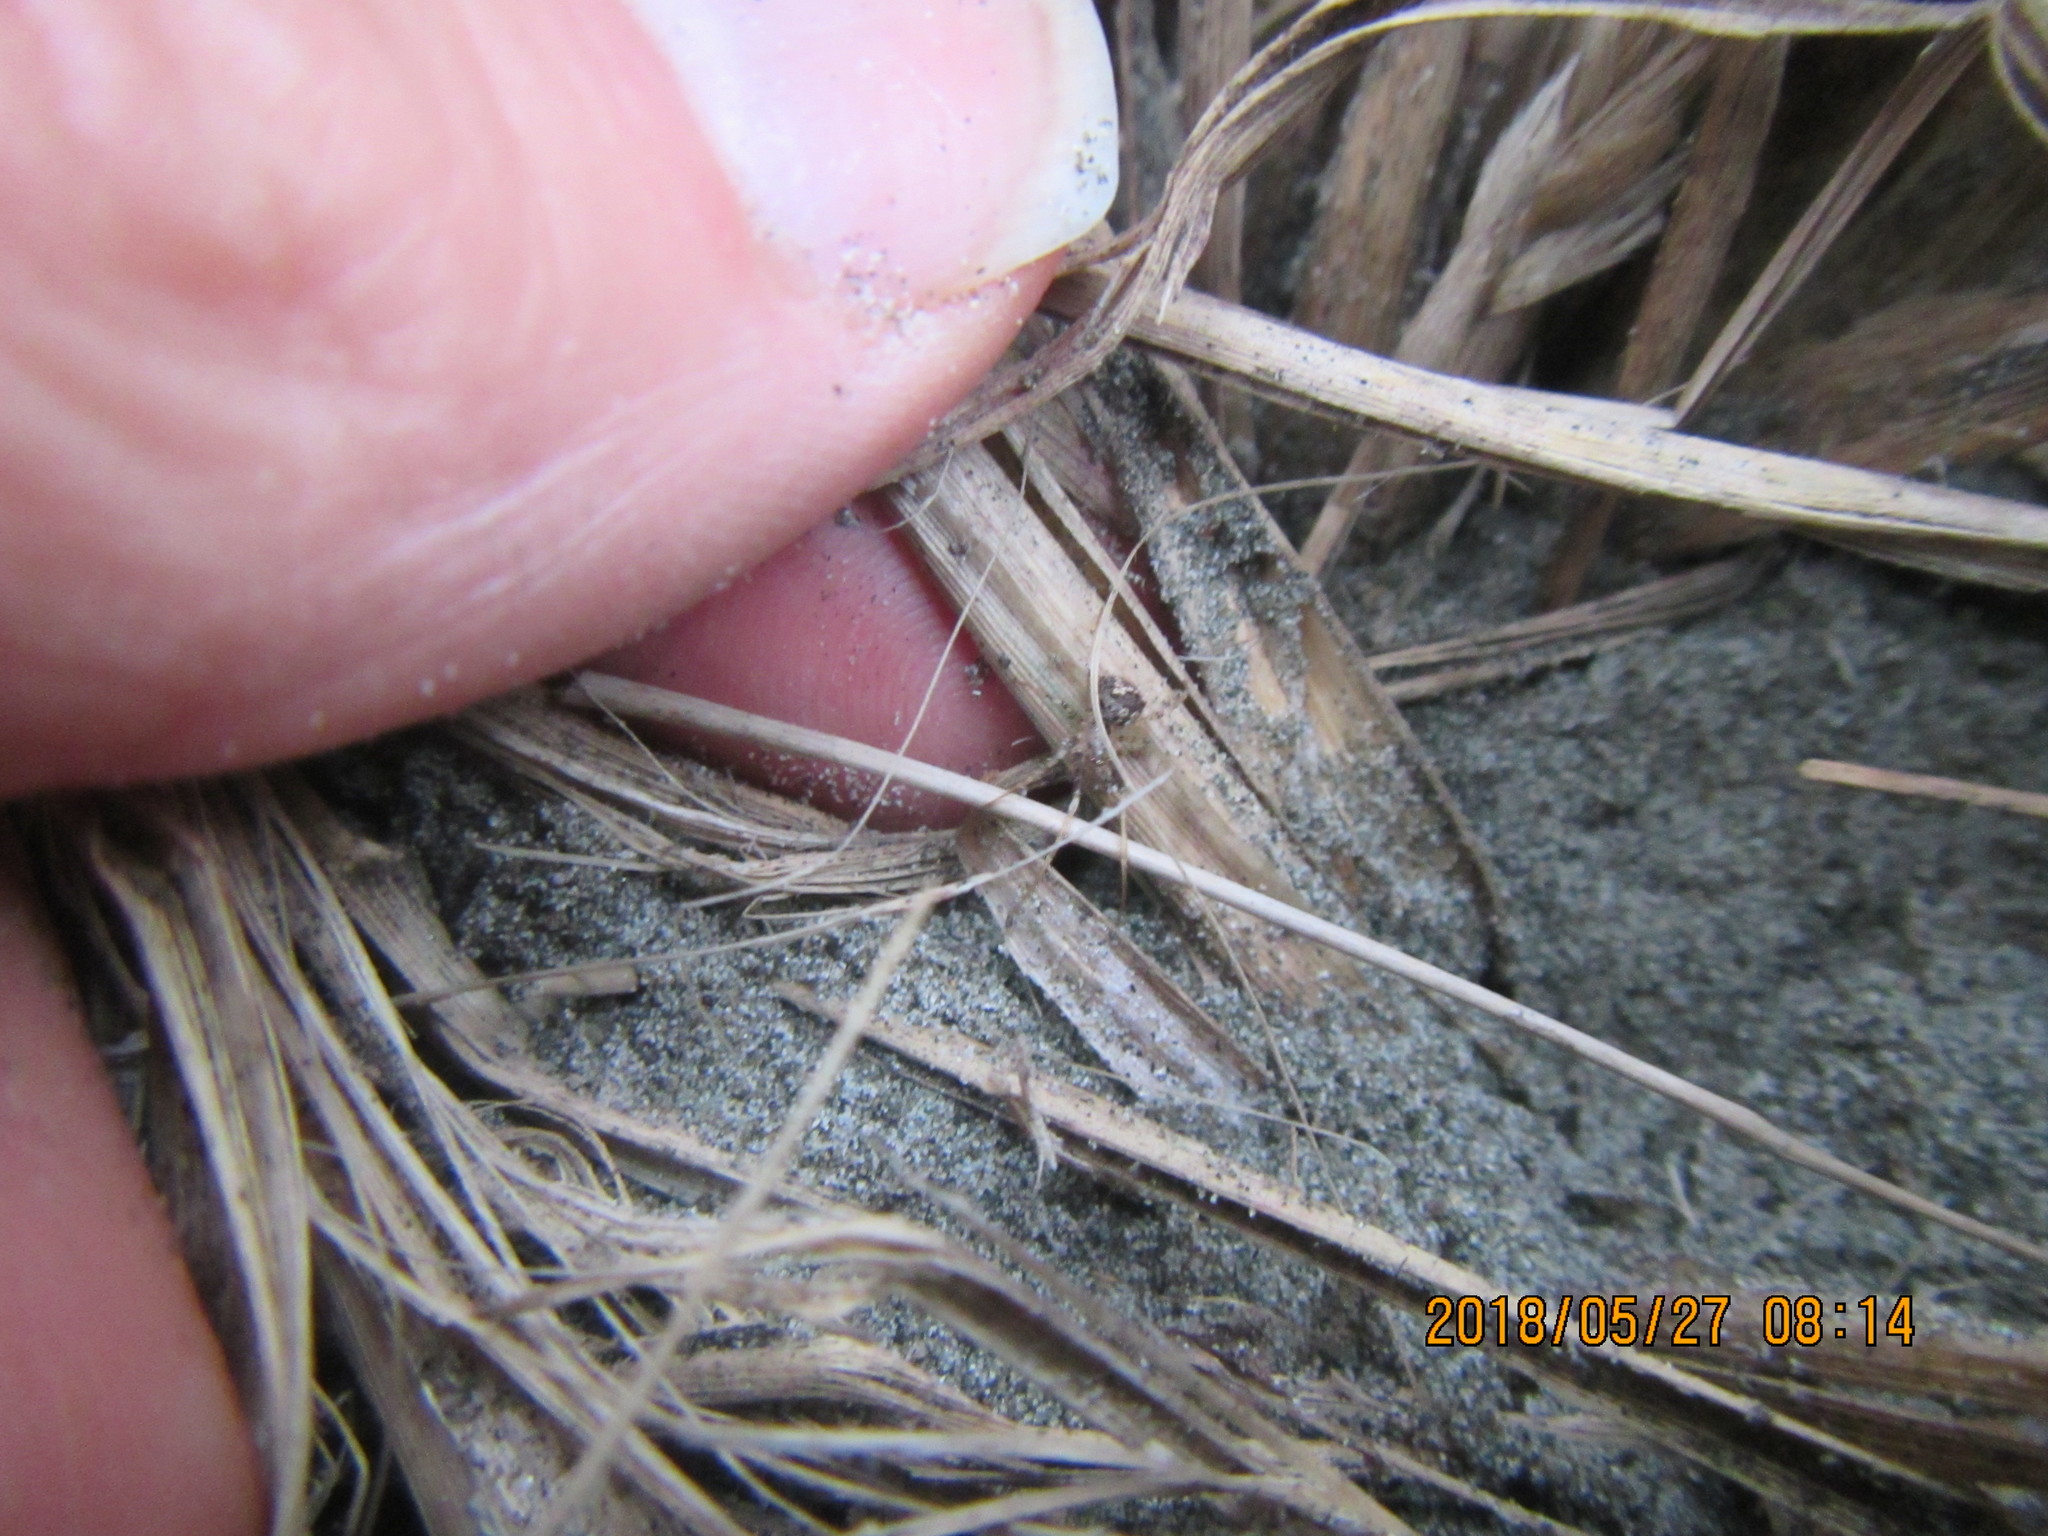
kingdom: Animalia
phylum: Arthropoda
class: Arachnida
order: Araneae
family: Mimetidae
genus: Australomimetus
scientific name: Australomimetus hartleyensis
